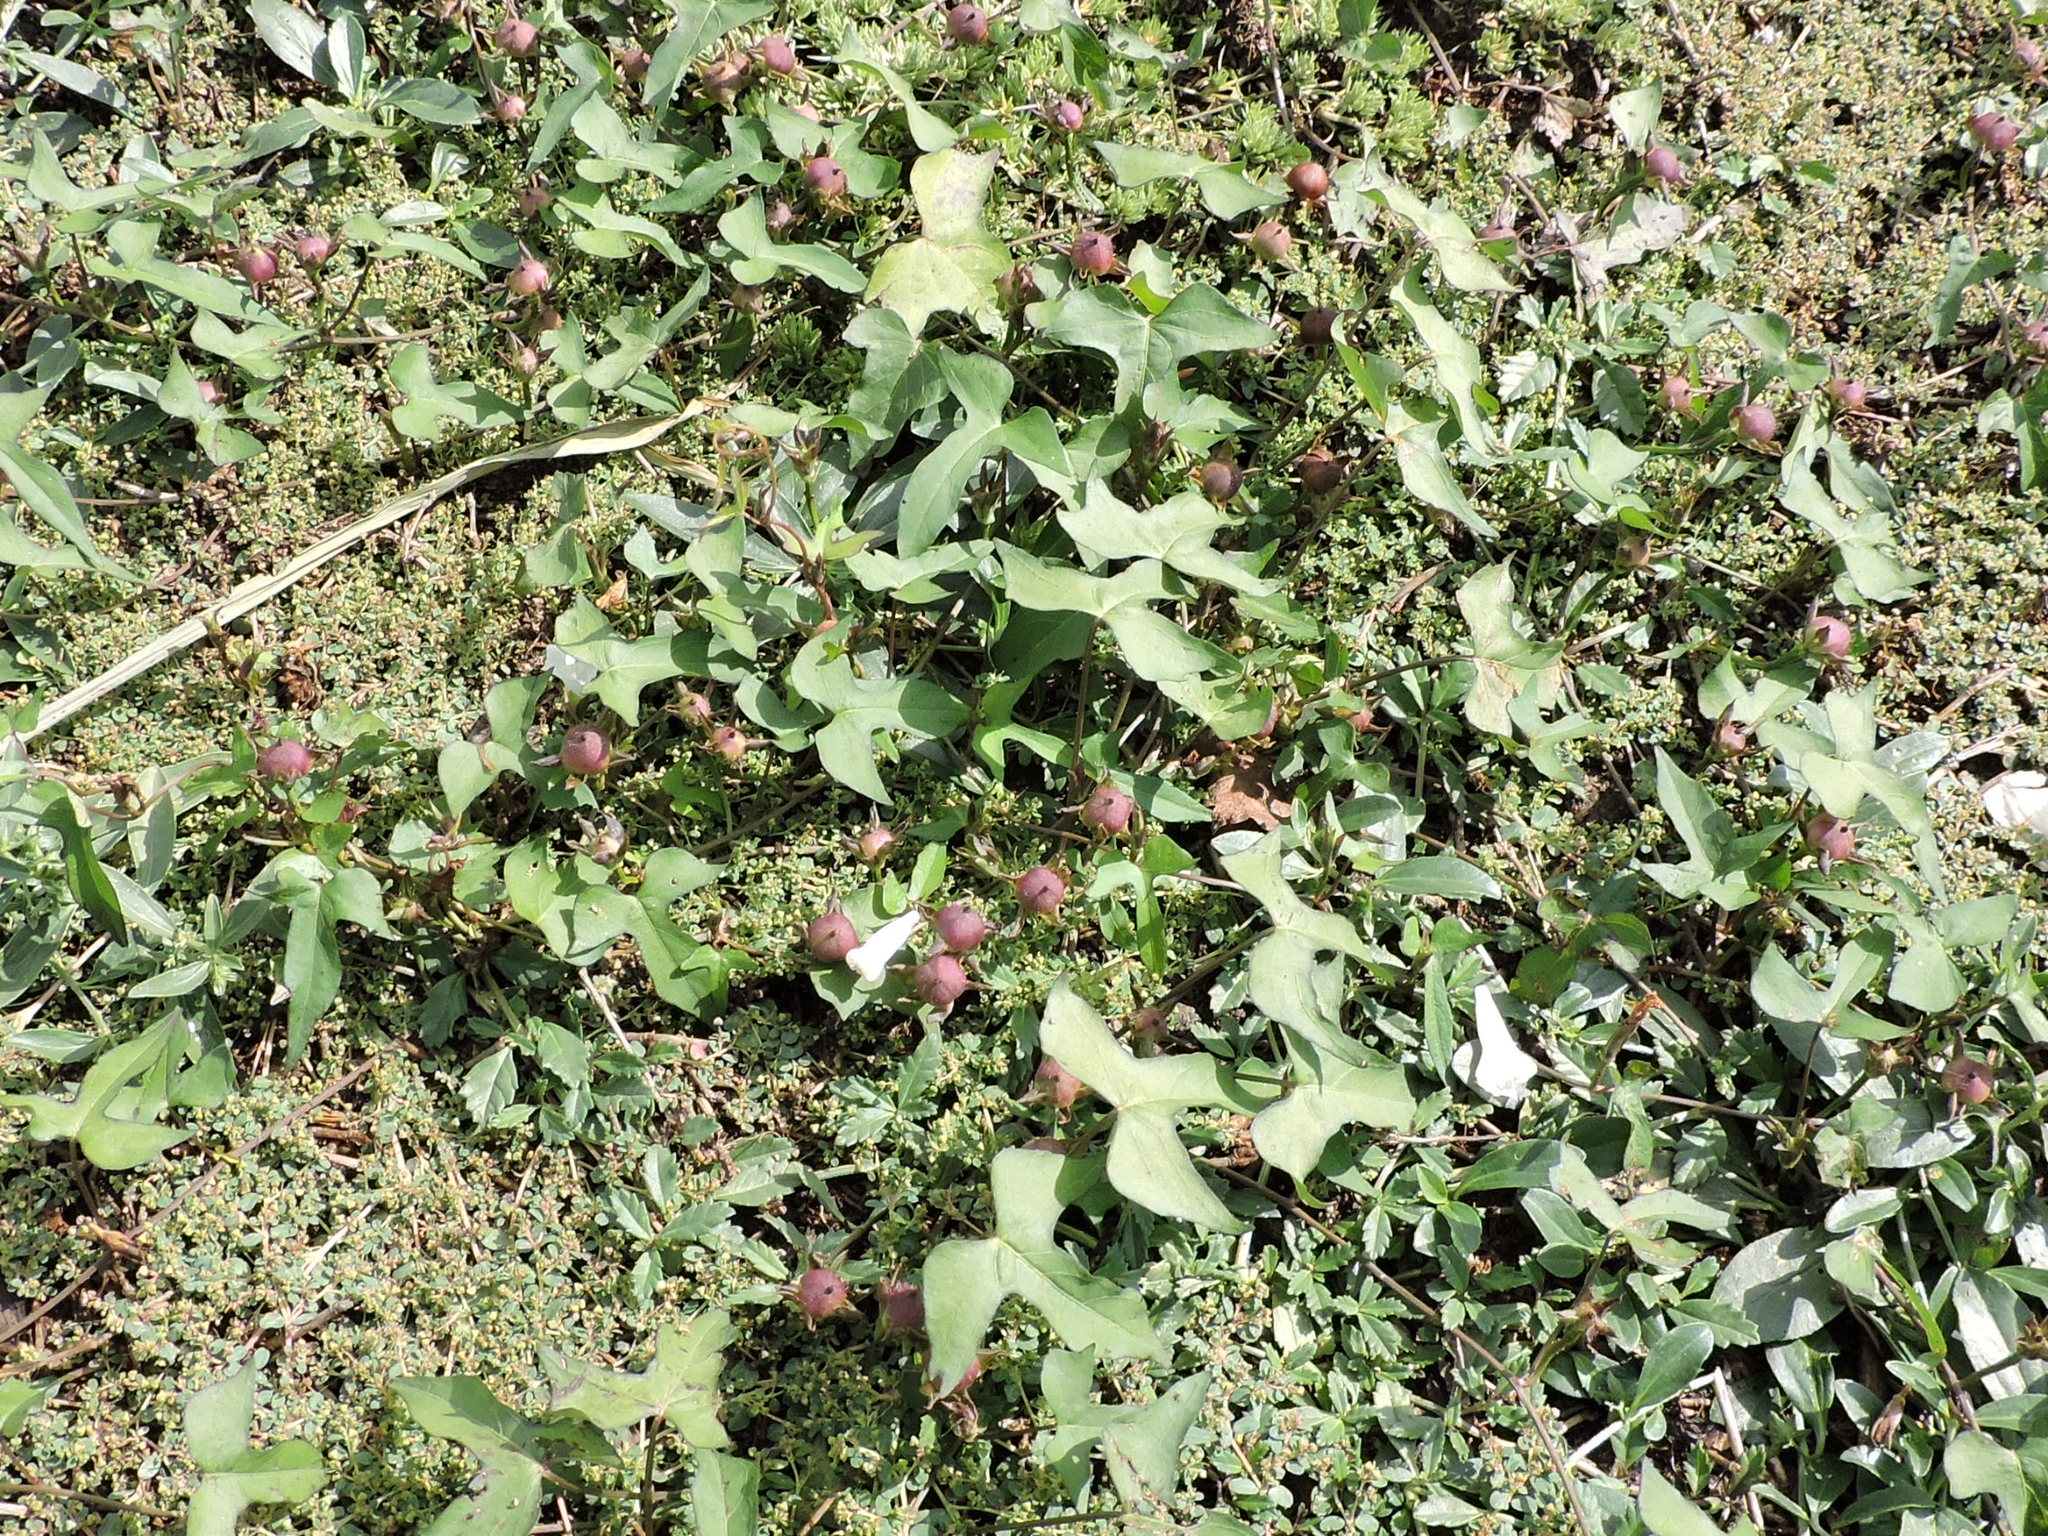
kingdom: Plantae
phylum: Tracheophyta
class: Magnoliopsida
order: Solanales
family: Convolvulaceae
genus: Ipomoea
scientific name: Ipomoea lacunosa
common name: White morning-glory
